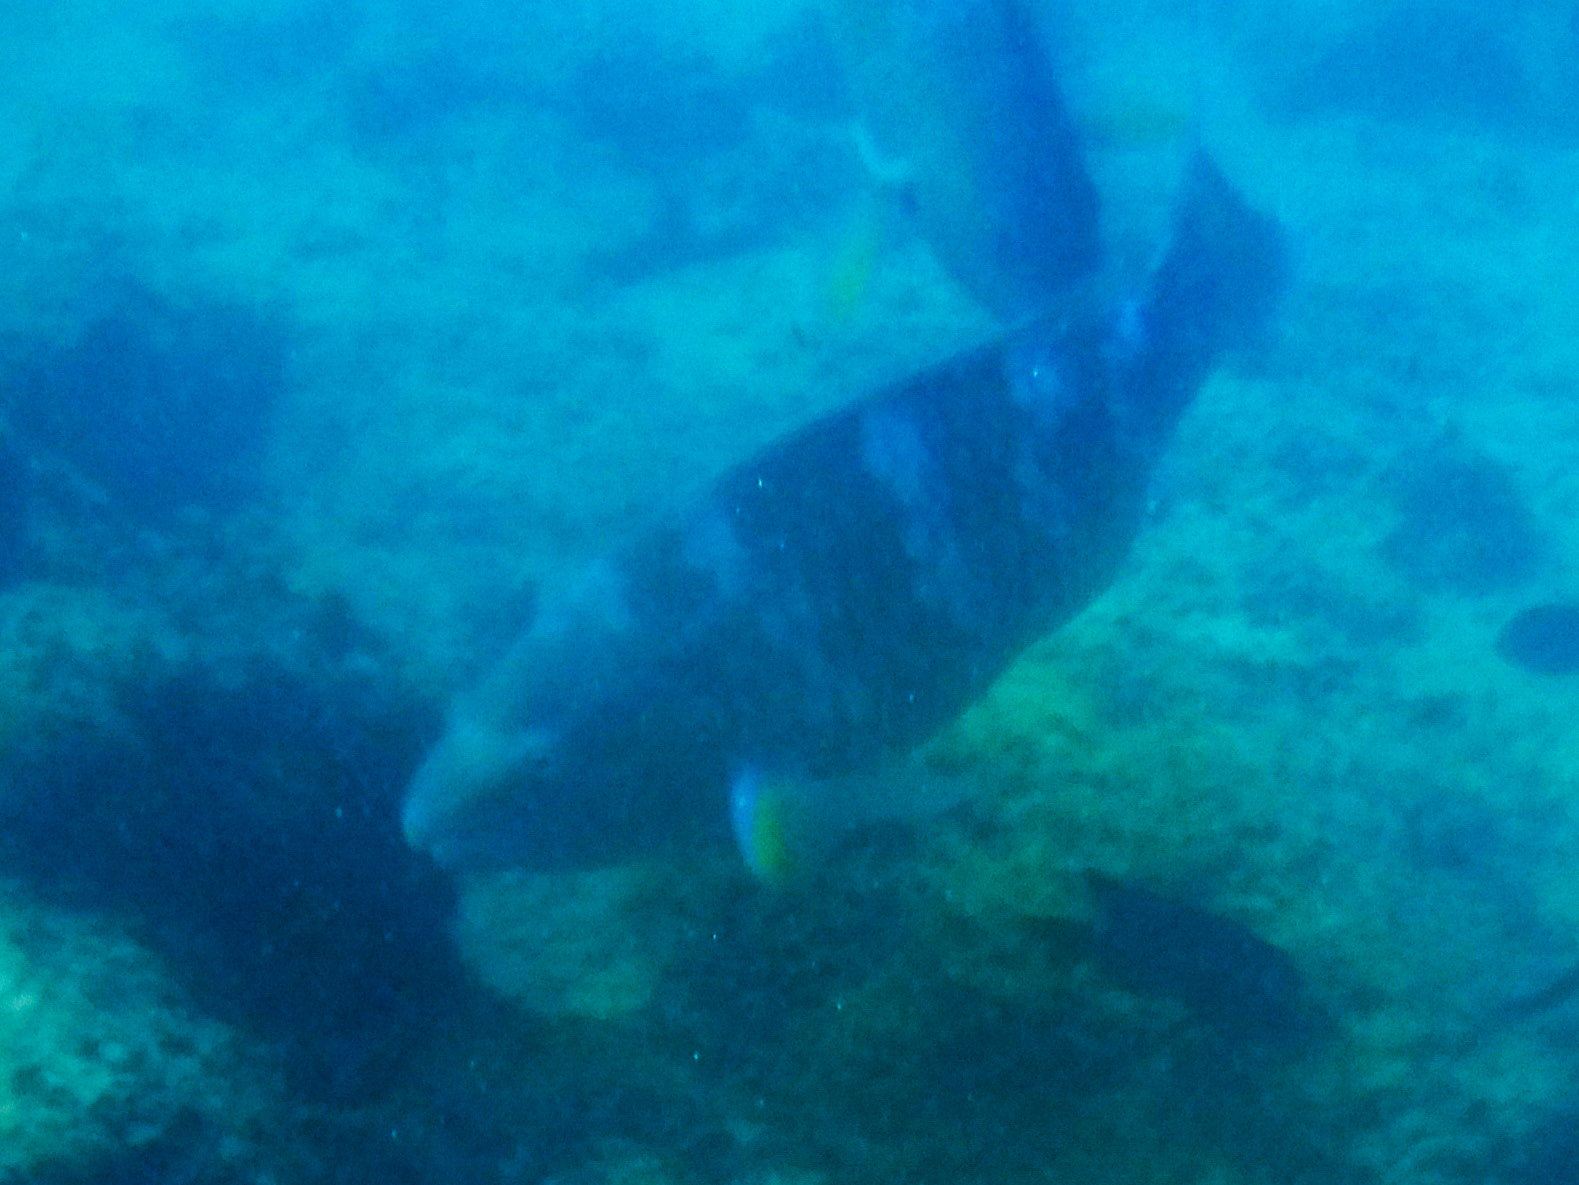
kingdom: Animalia
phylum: Chordata
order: Perciformes
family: Scaridae
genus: Scarus
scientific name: Scarus ghobban
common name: Blue-barred parrotfish
